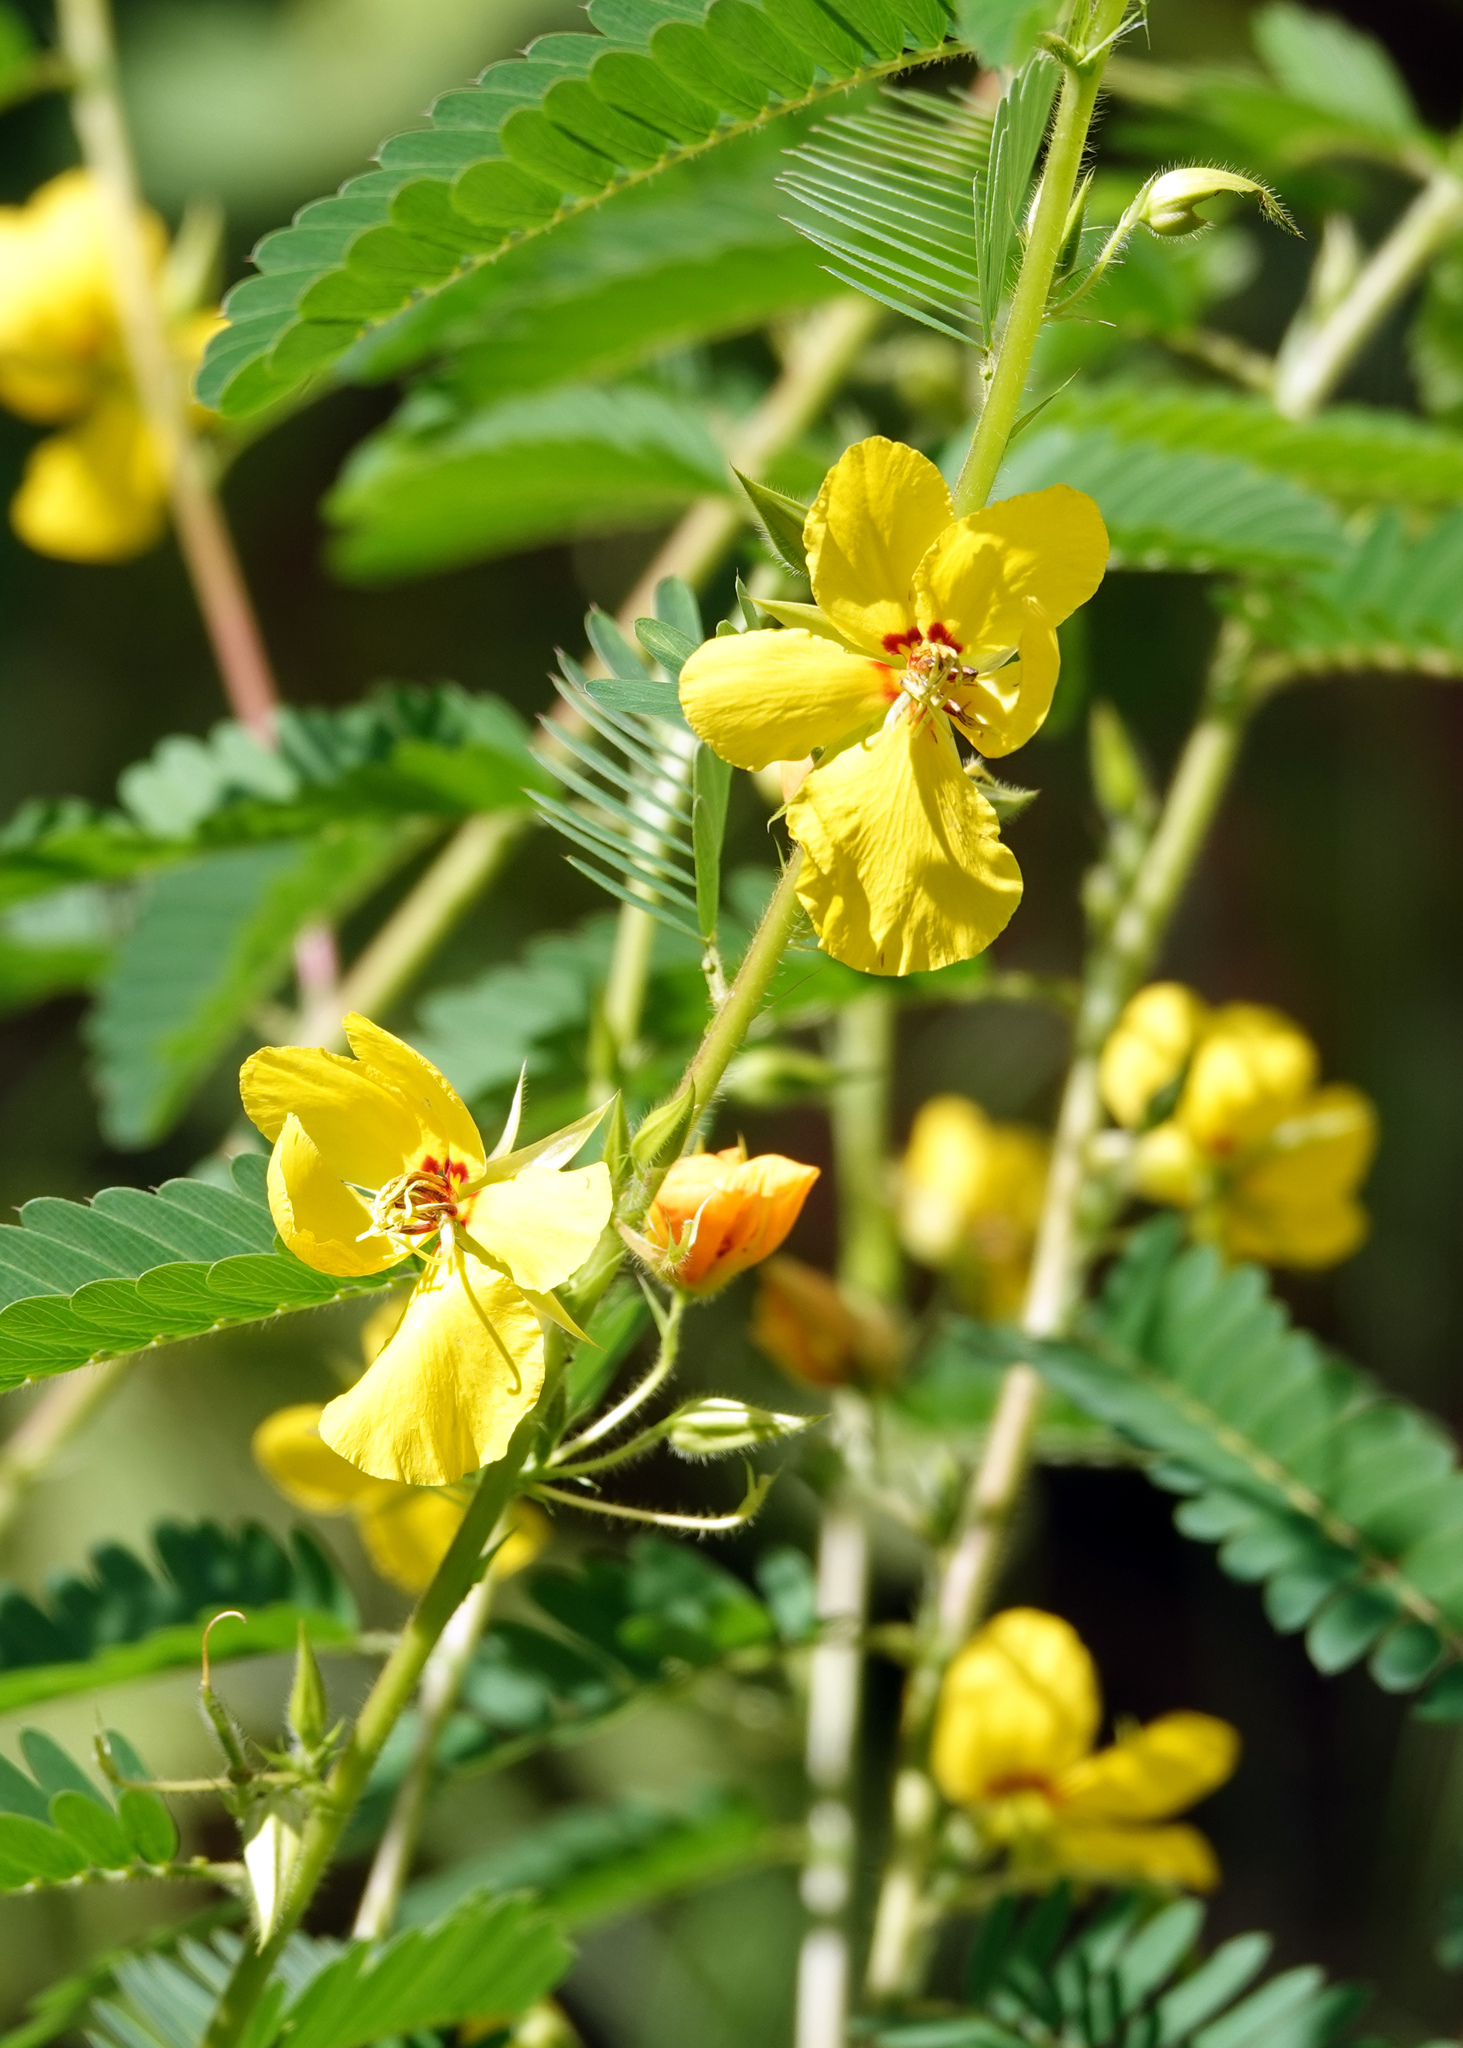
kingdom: Plantae
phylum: Tracheophyta
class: Magnoliopsida
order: Fabales
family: Fabaceae
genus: Chamaecrista
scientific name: Chamaecrista fasciculata
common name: Golden cassia
